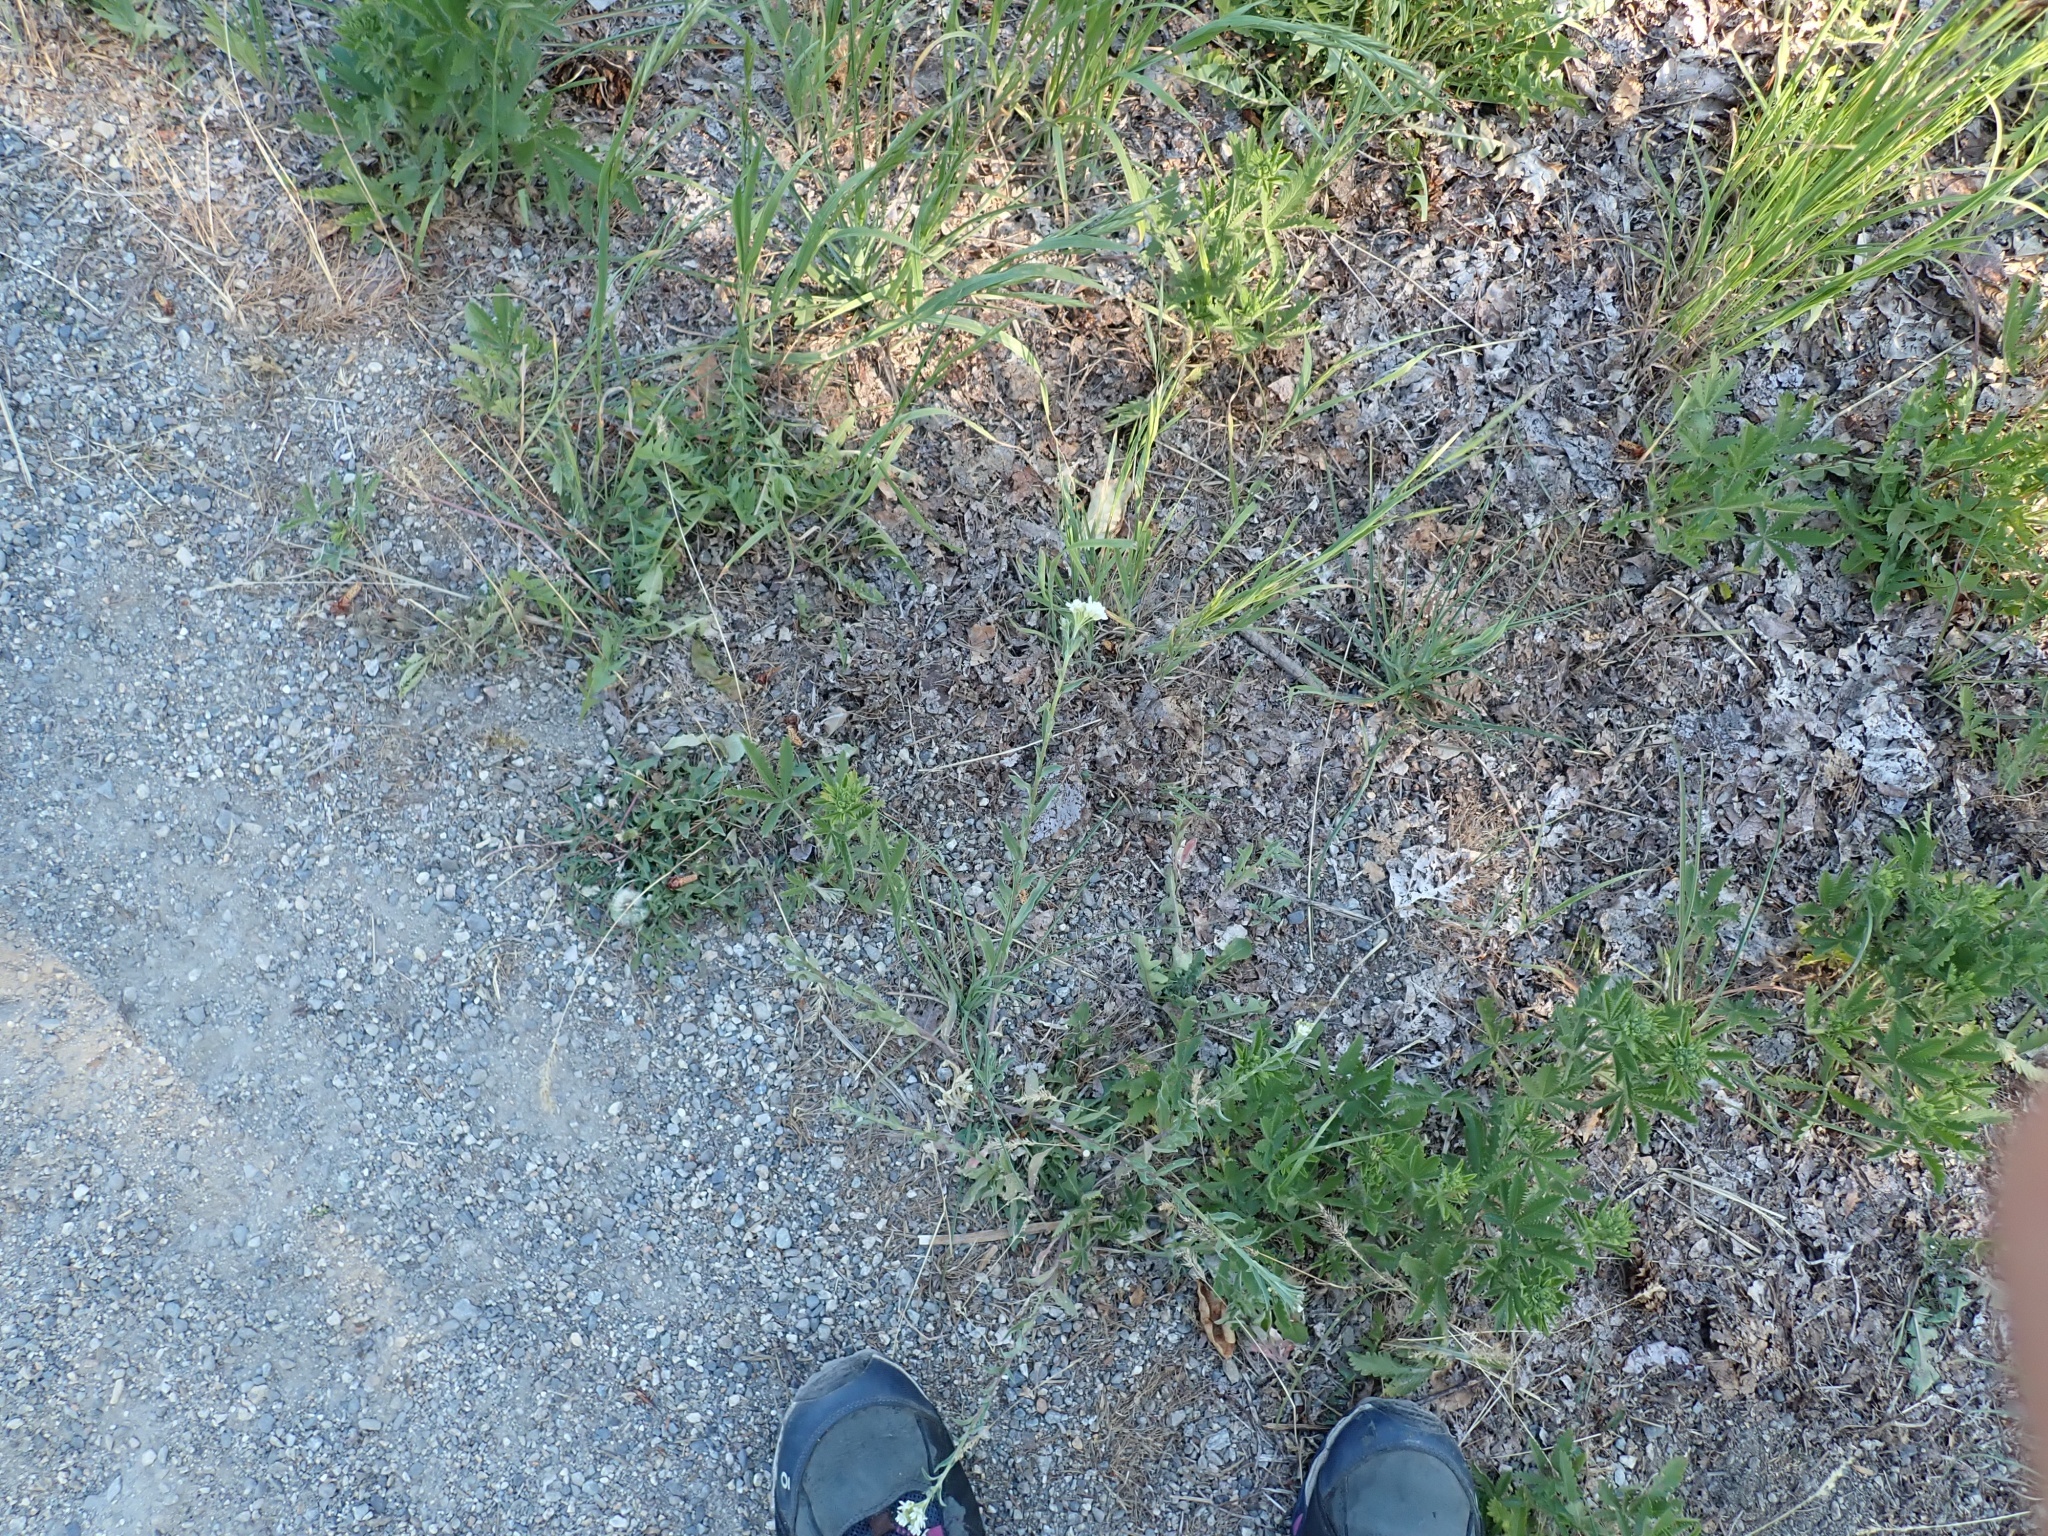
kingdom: Plantae
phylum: Tracheophyta
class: Magnoliopsida
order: Brassicales
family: Brassicaceae
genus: Berteroa
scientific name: Berteroa incana
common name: Hoary alison
